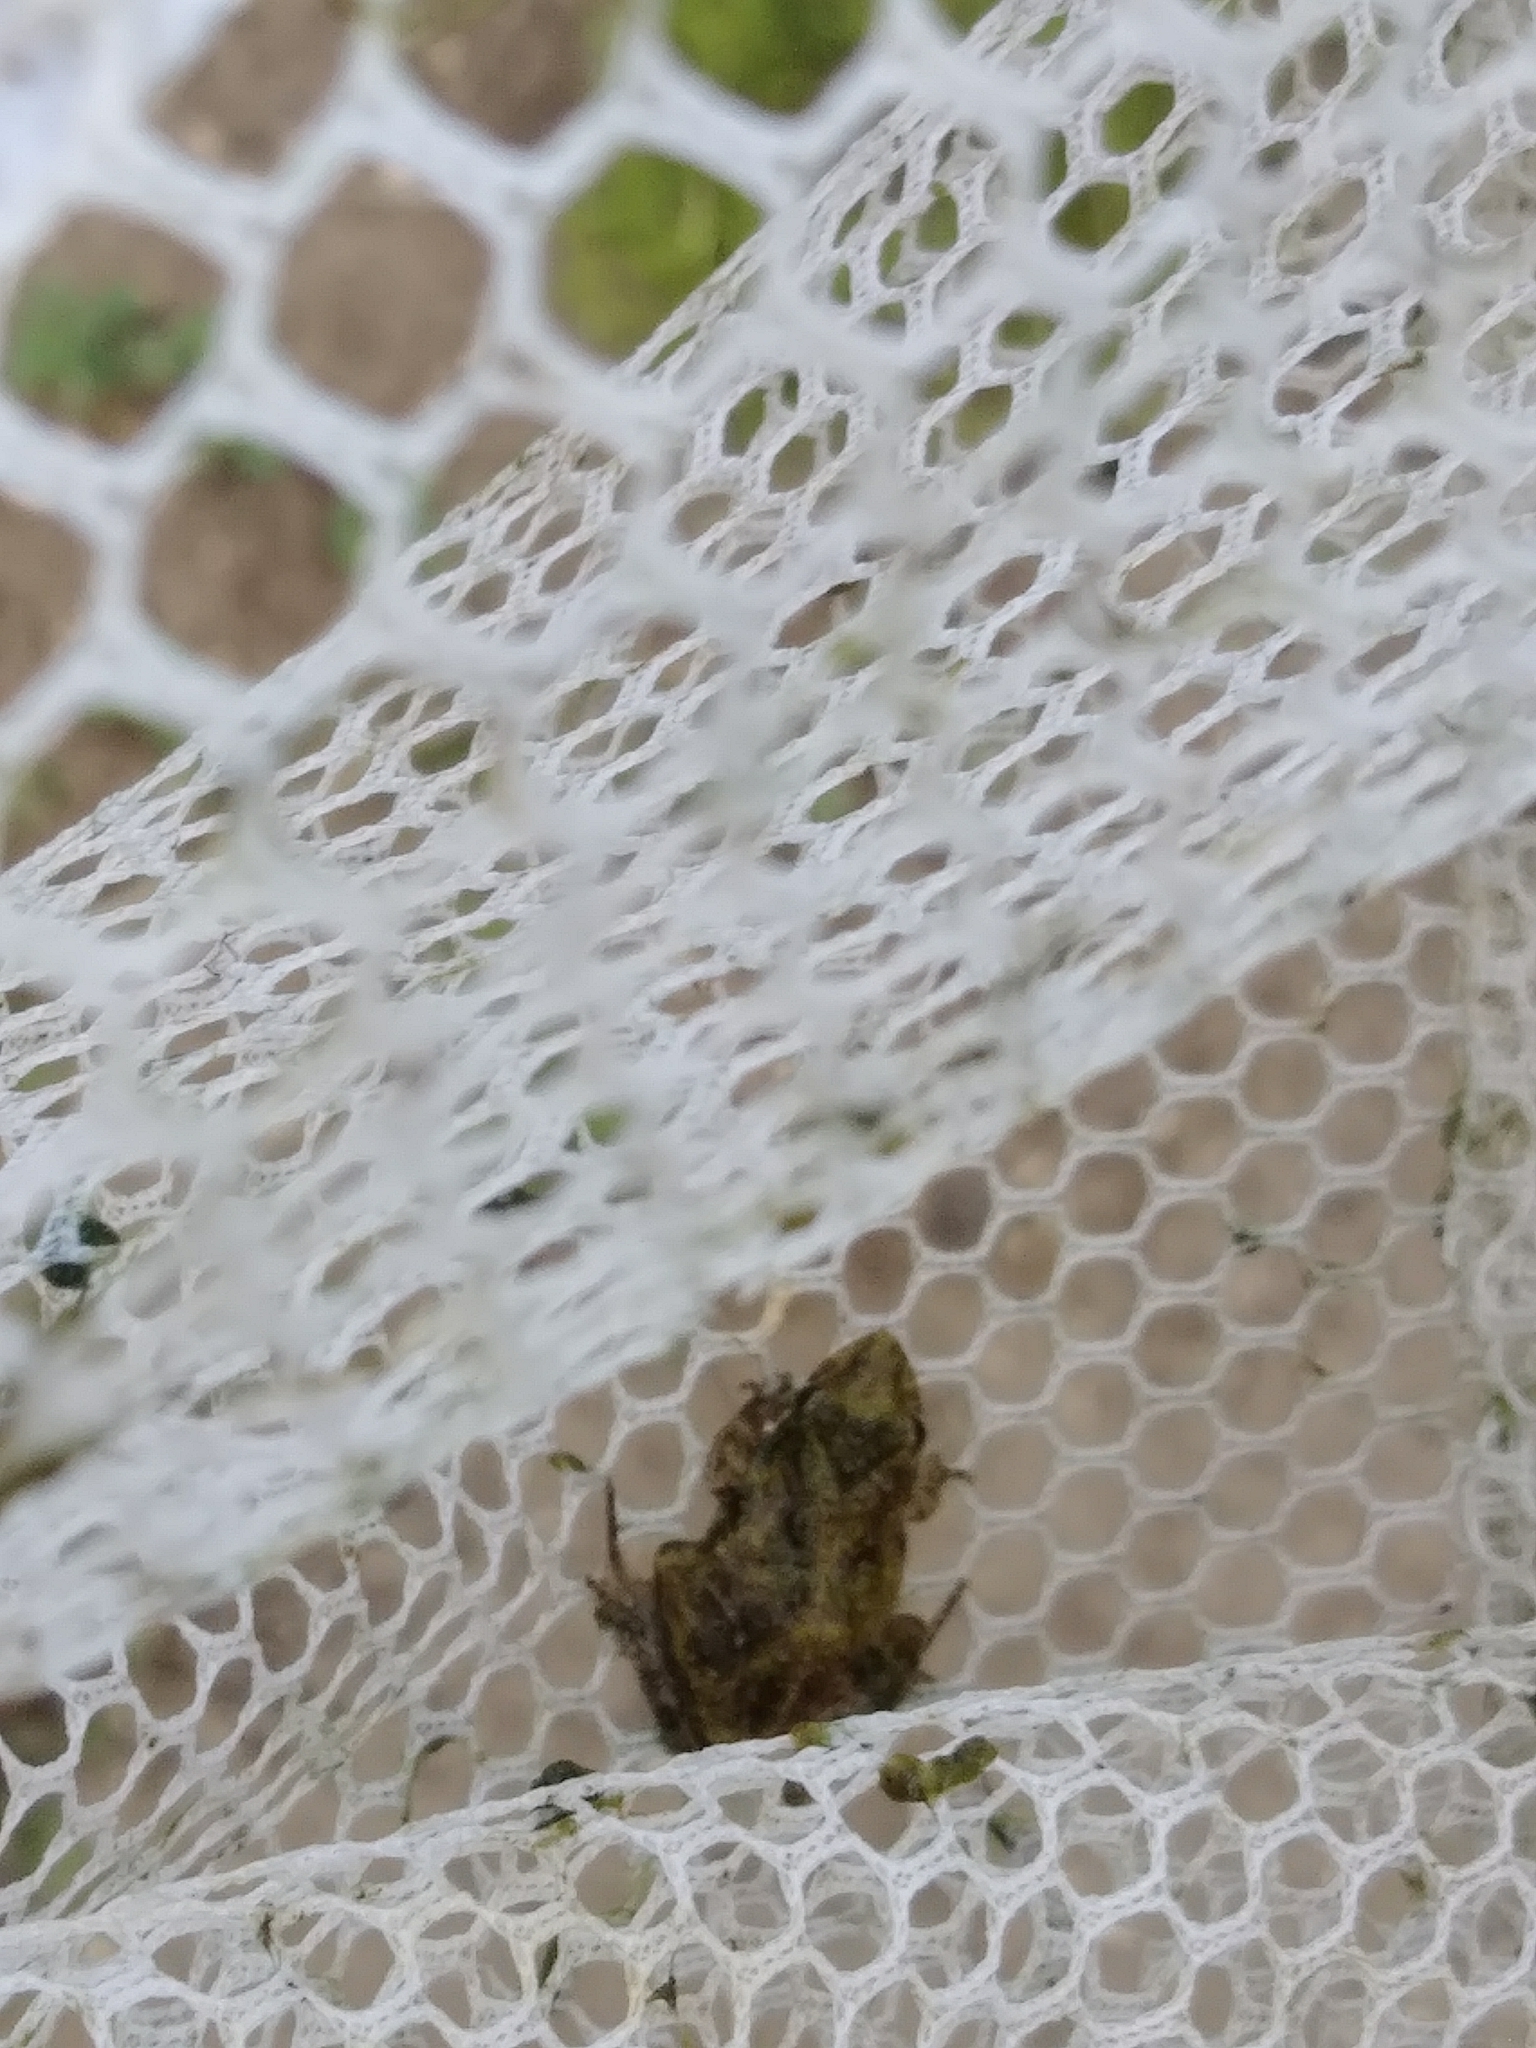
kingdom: Animalia
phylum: Chordata
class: Amphibia
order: Anura
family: Hylidae
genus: Acris
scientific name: Acris gryllus
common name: Southern cricket frog
